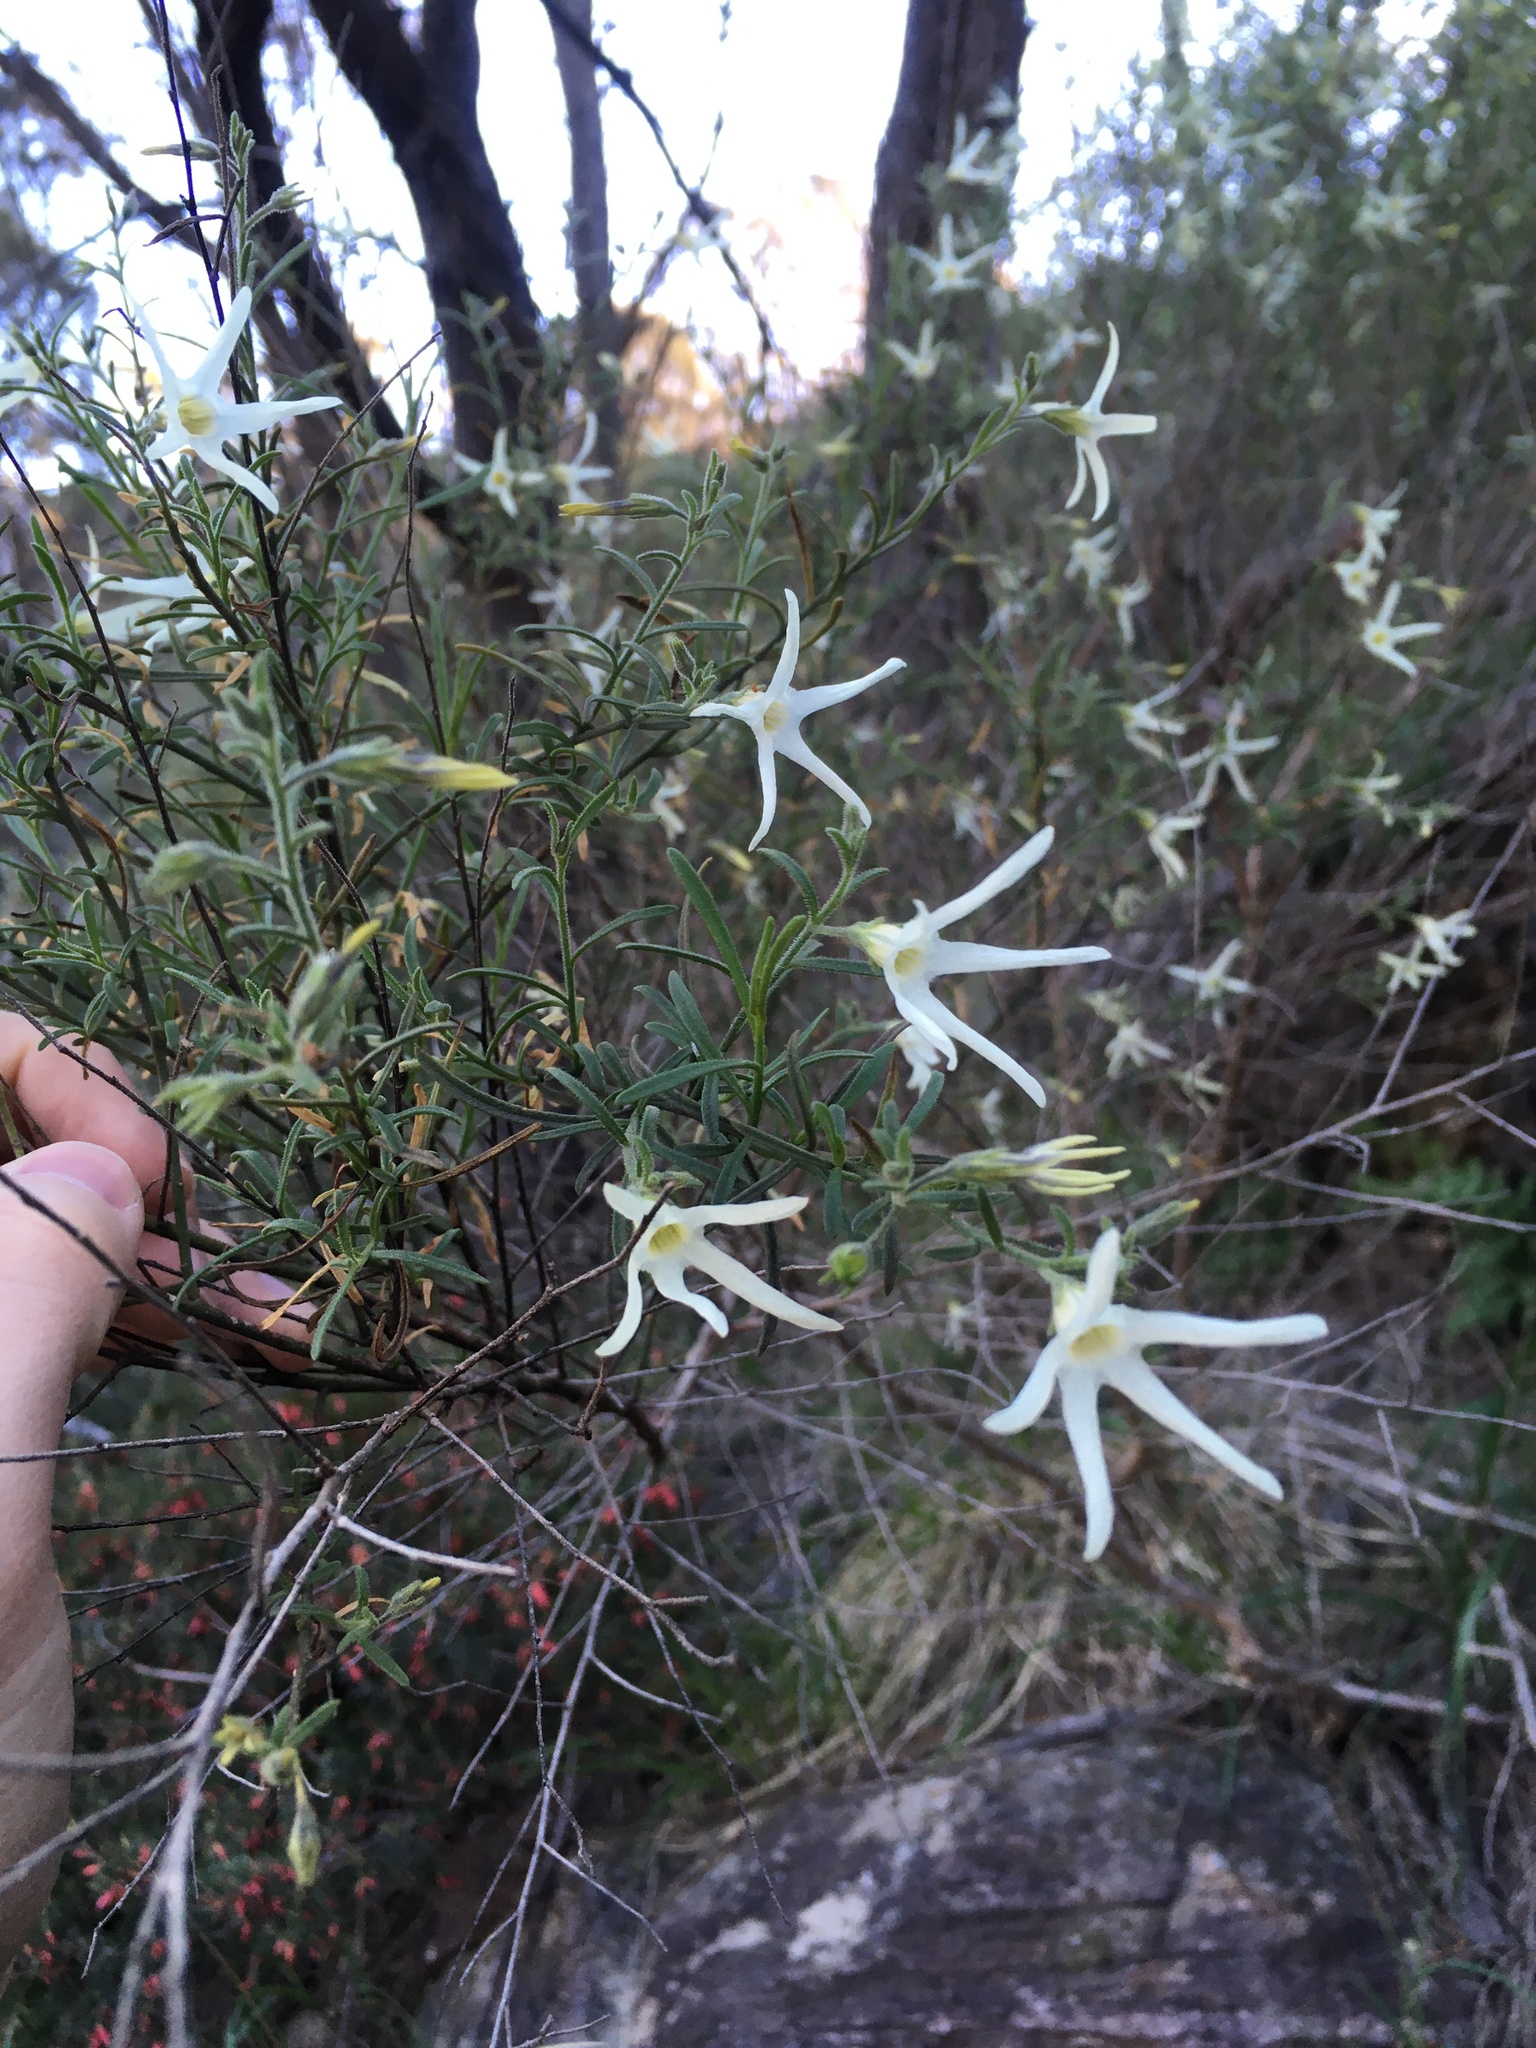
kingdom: Plantae
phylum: Tracheophyta
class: Magnoliopsida
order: Solanales
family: Solanaceae
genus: Anthocercis
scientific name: Anthocercis angustifolia
